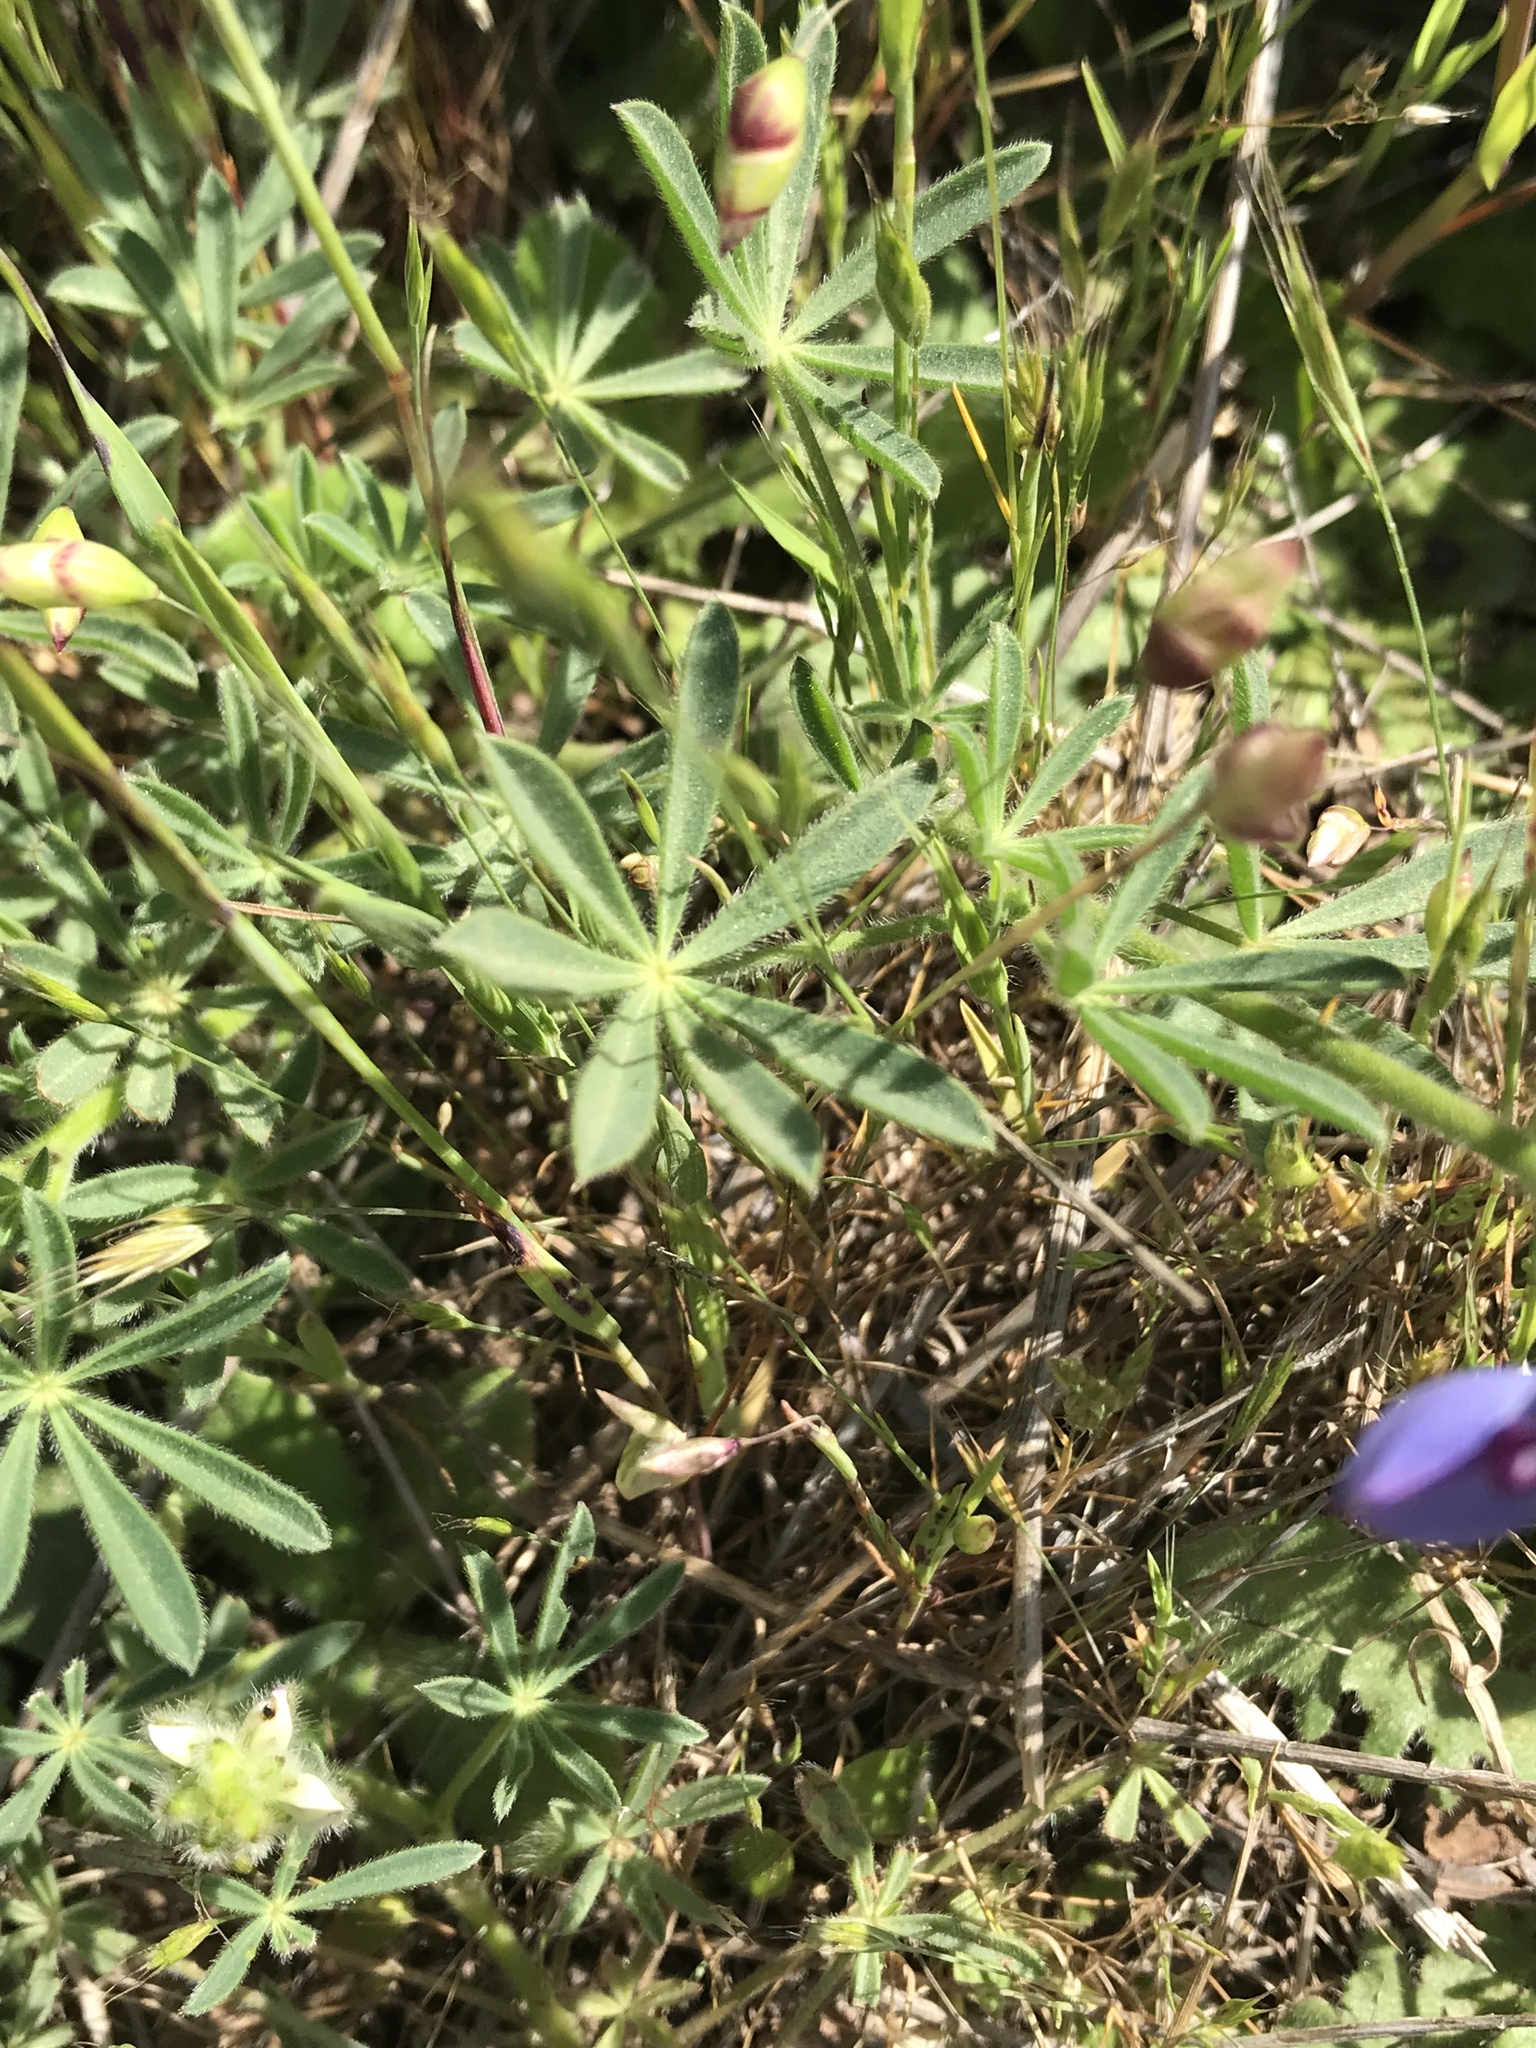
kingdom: Plantae
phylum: Tracheophyta
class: Magnoliopsida
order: Fabales
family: Fabaceae
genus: Lupinus
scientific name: Lupinus variicolor
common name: Lindley's varied lupine
